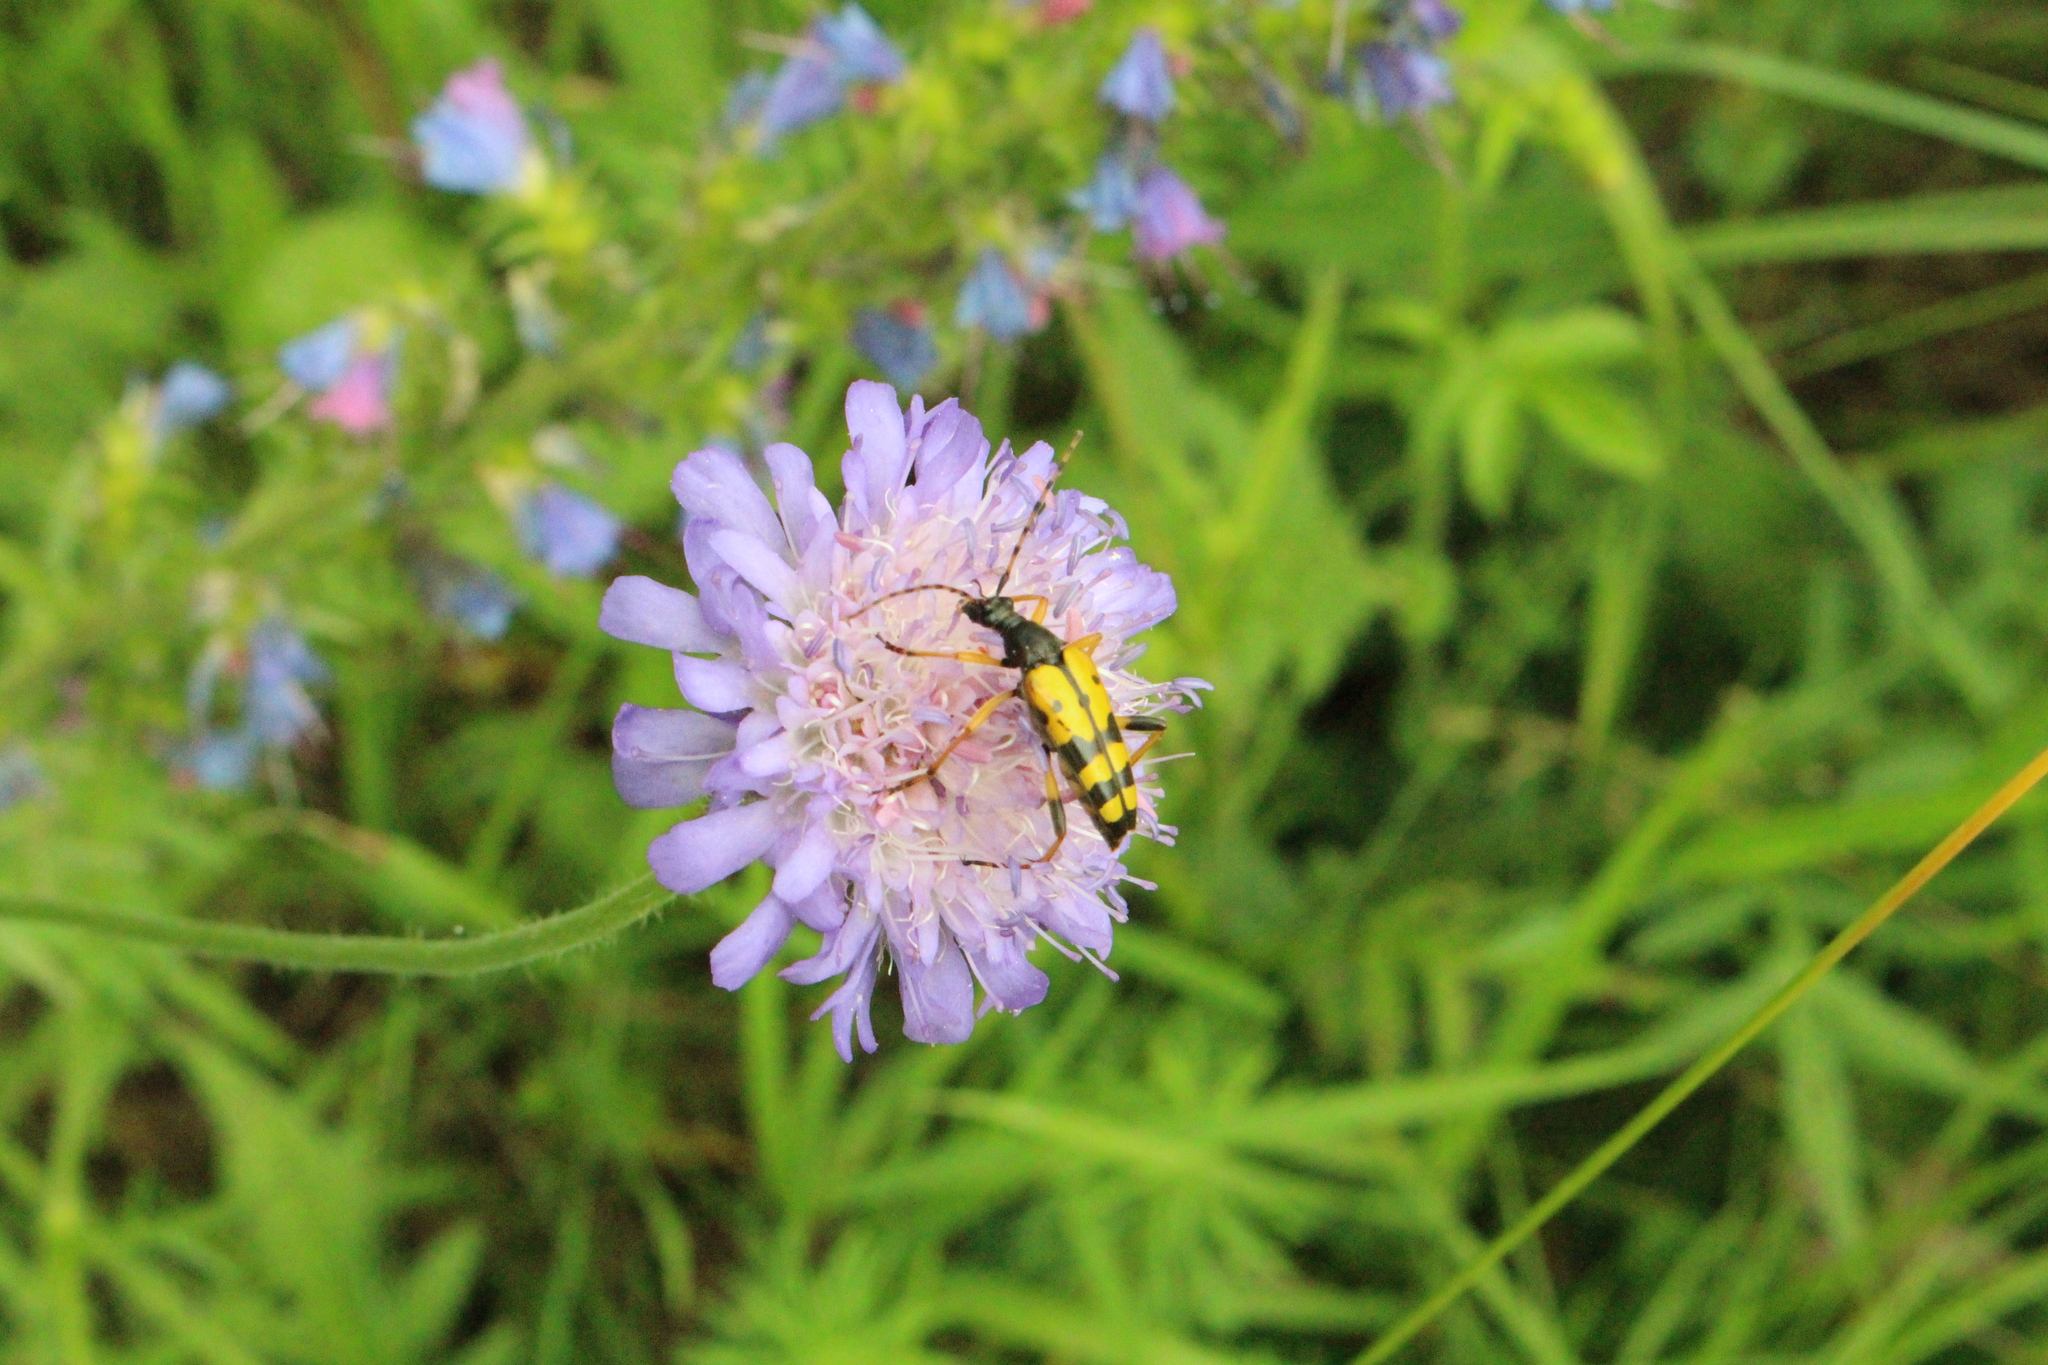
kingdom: Animalia
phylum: Arthropoda
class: Insecta
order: Coleoptera
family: Cerambycidae
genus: Rutpela
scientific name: Rutpela maculata
